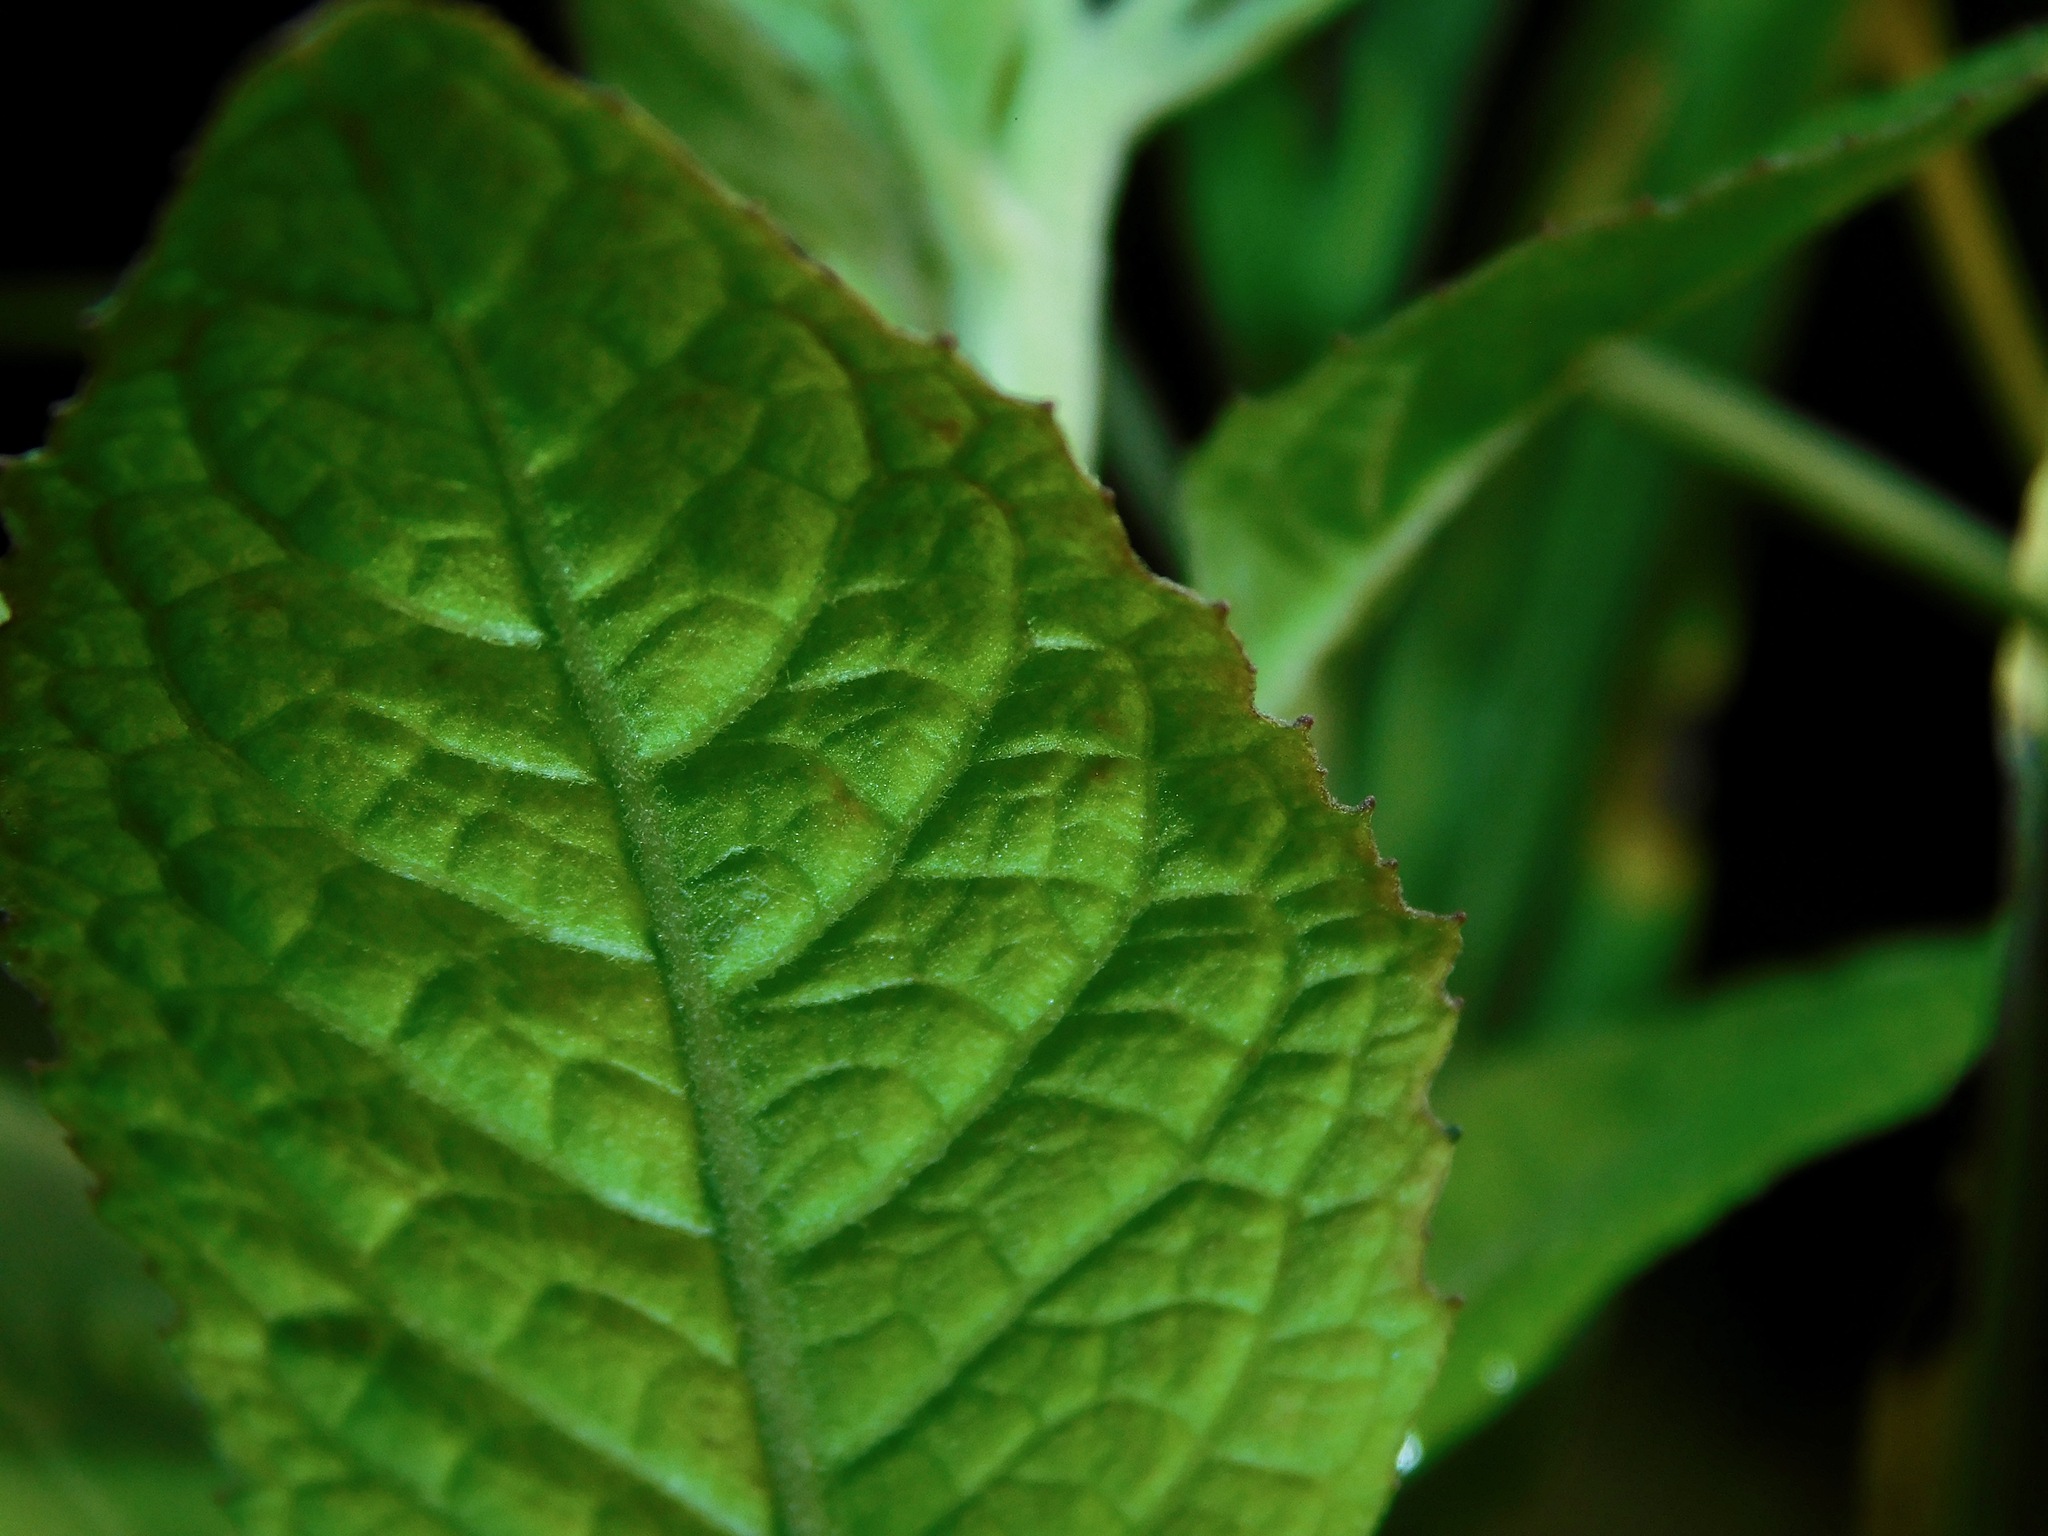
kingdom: Plantae
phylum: Tracheophyta
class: Magnoliopsida
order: Asterales
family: Asteraceae
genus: Pluchea
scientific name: Pluchea odorata
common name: Saltmarsh fleabane
